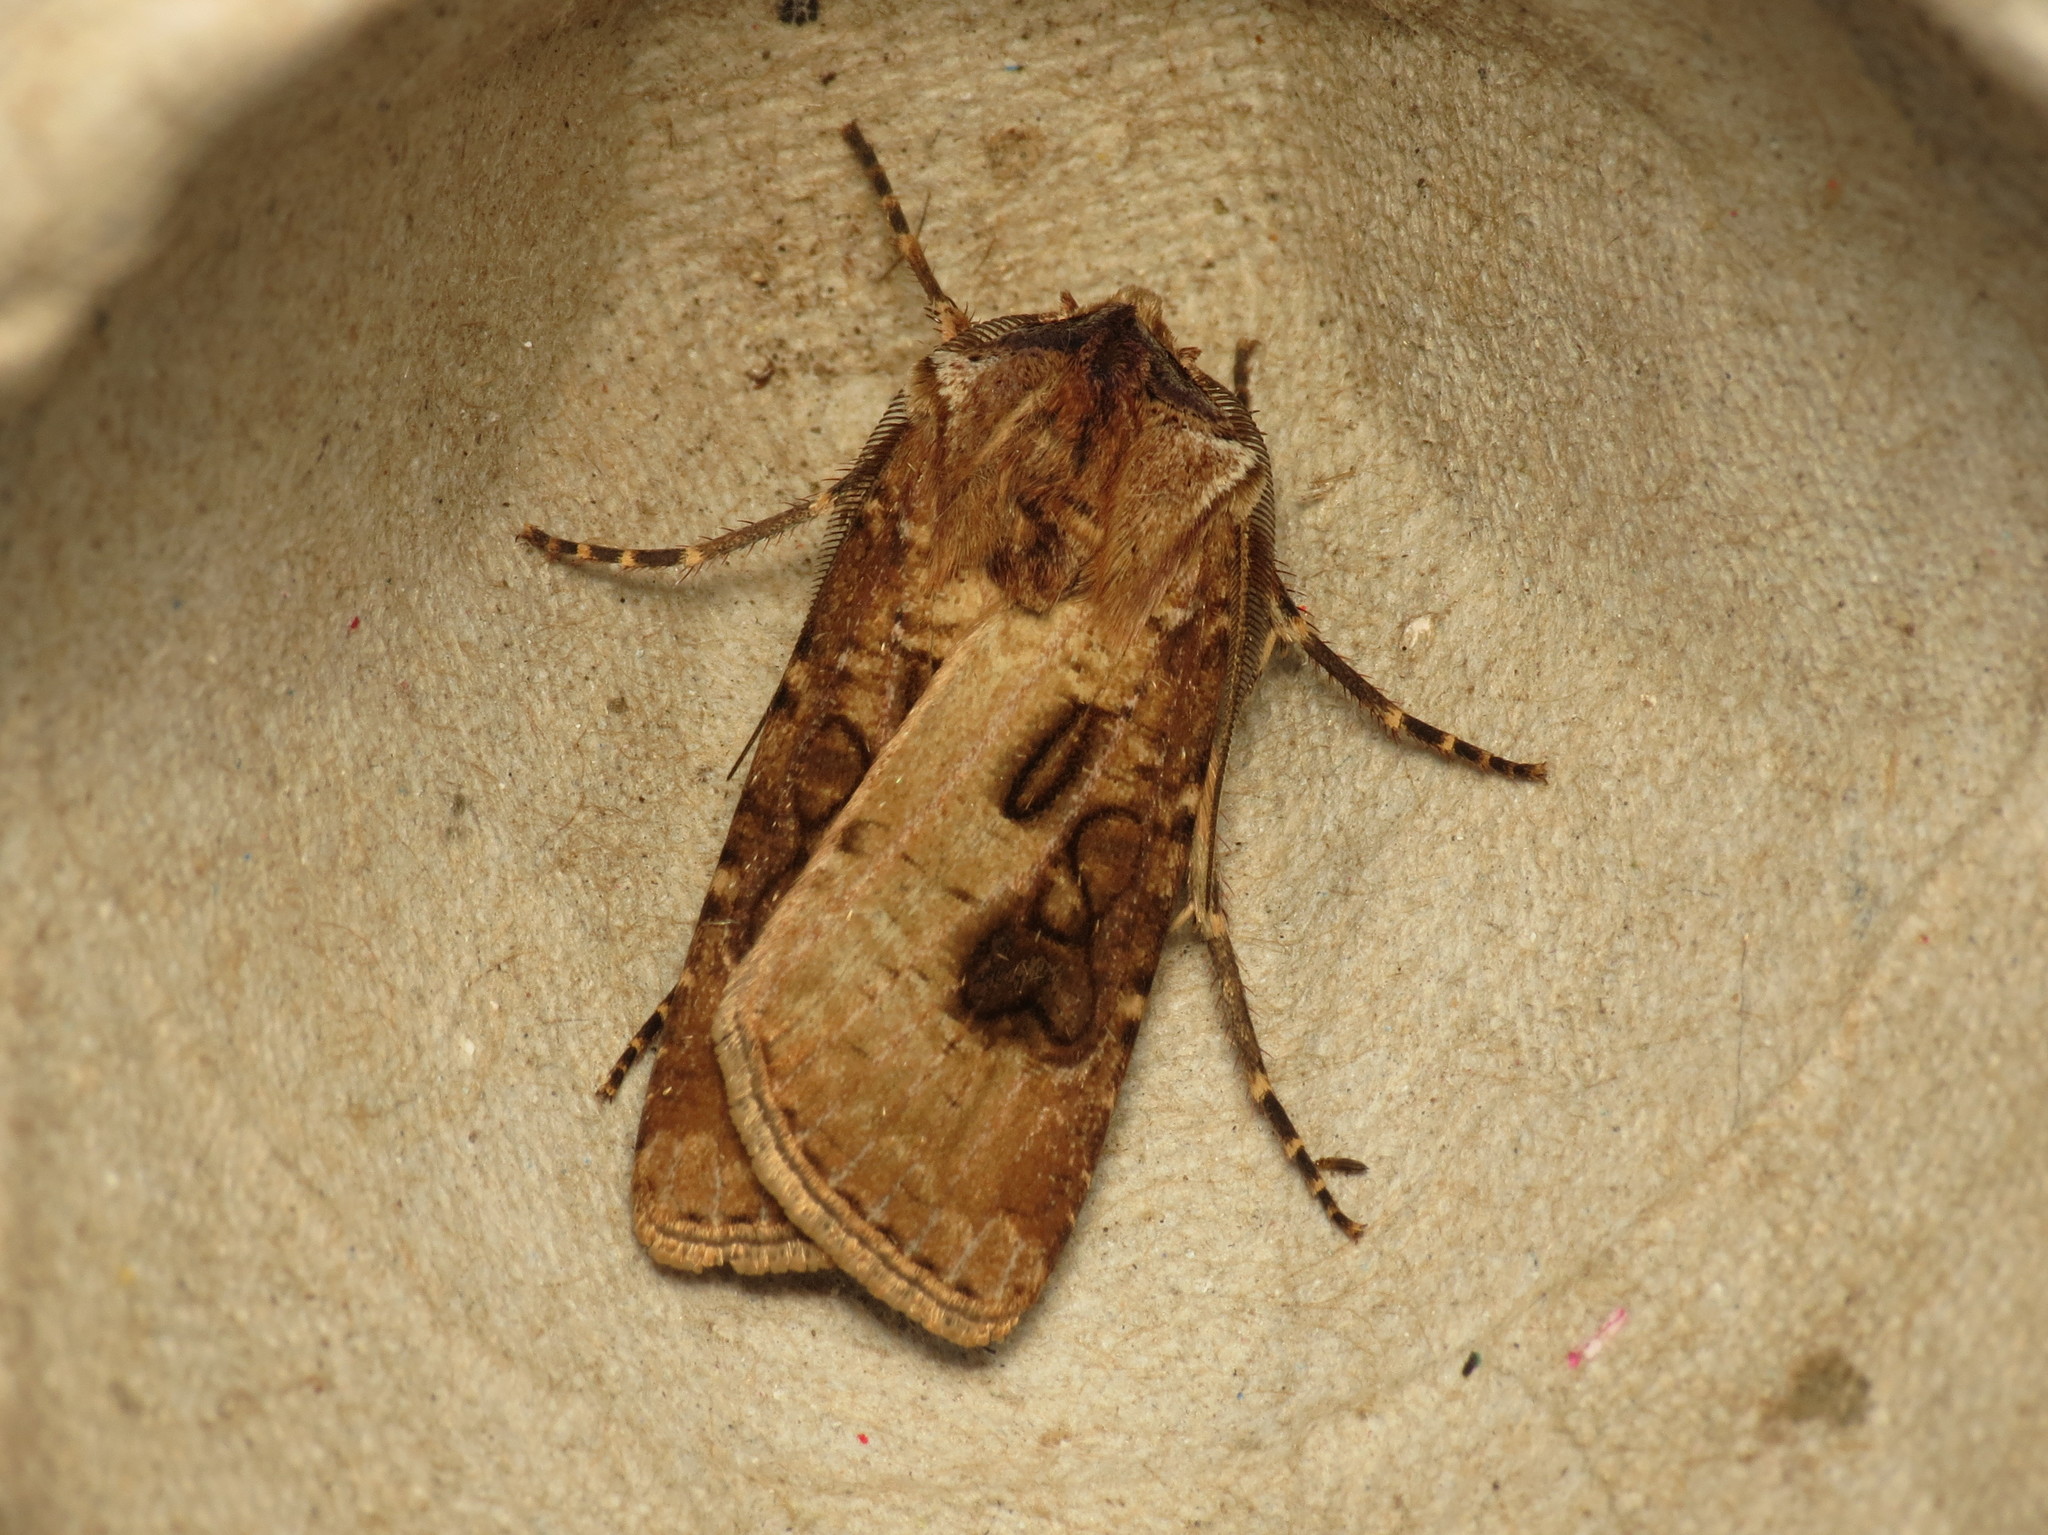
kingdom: Animalia
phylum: Arthropoda
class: Insecta
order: Lepidoptera
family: Noctuidae
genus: Agrotis
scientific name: Agrotis clavis
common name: Heart and club
